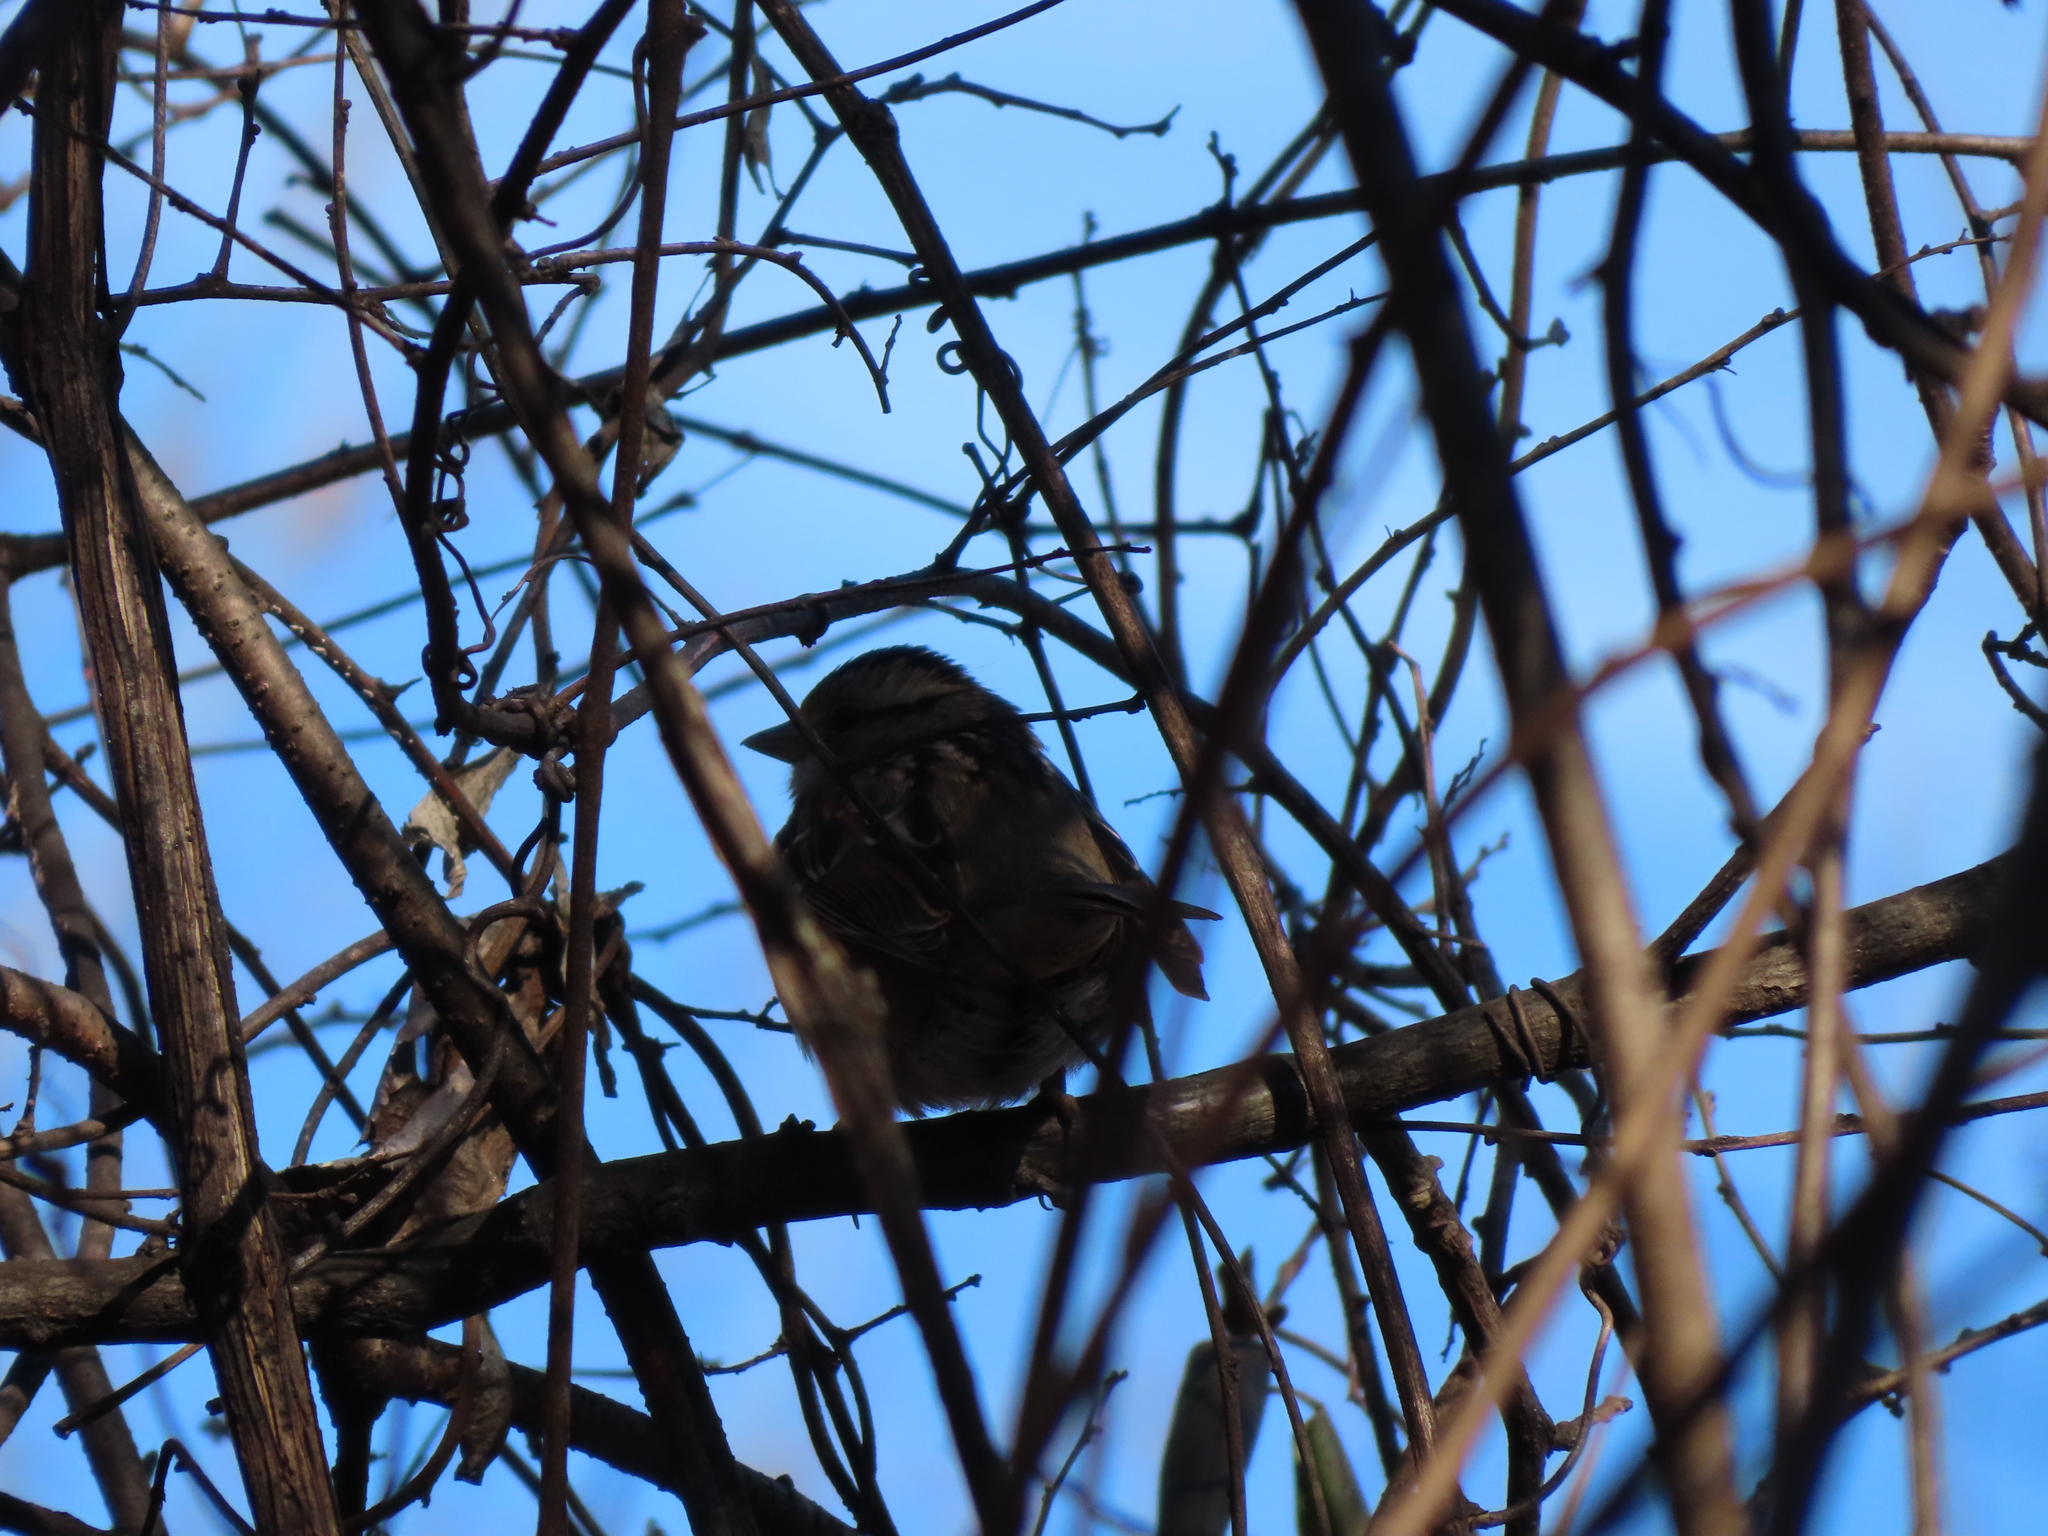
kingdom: Animalia
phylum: Chordata
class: Aves
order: Passeriformes
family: Passerellidae
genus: Melospiza
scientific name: Melospiza melodia
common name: Song sparrow
